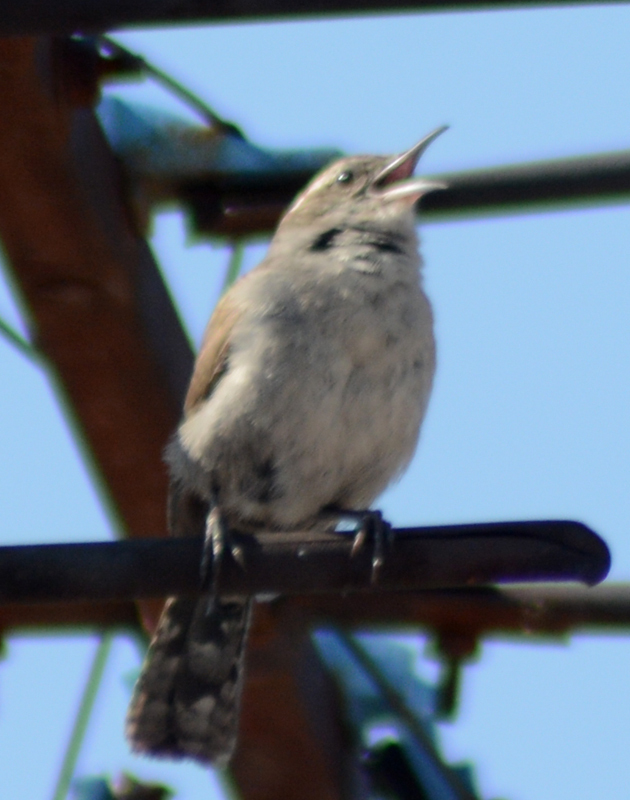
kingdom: Animalia
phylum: Chordata
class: Aves
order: Passeriformes
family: Troglodytidae
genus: Thryomanes
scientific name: Thryomanes bewickii
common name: Bewick's wren
